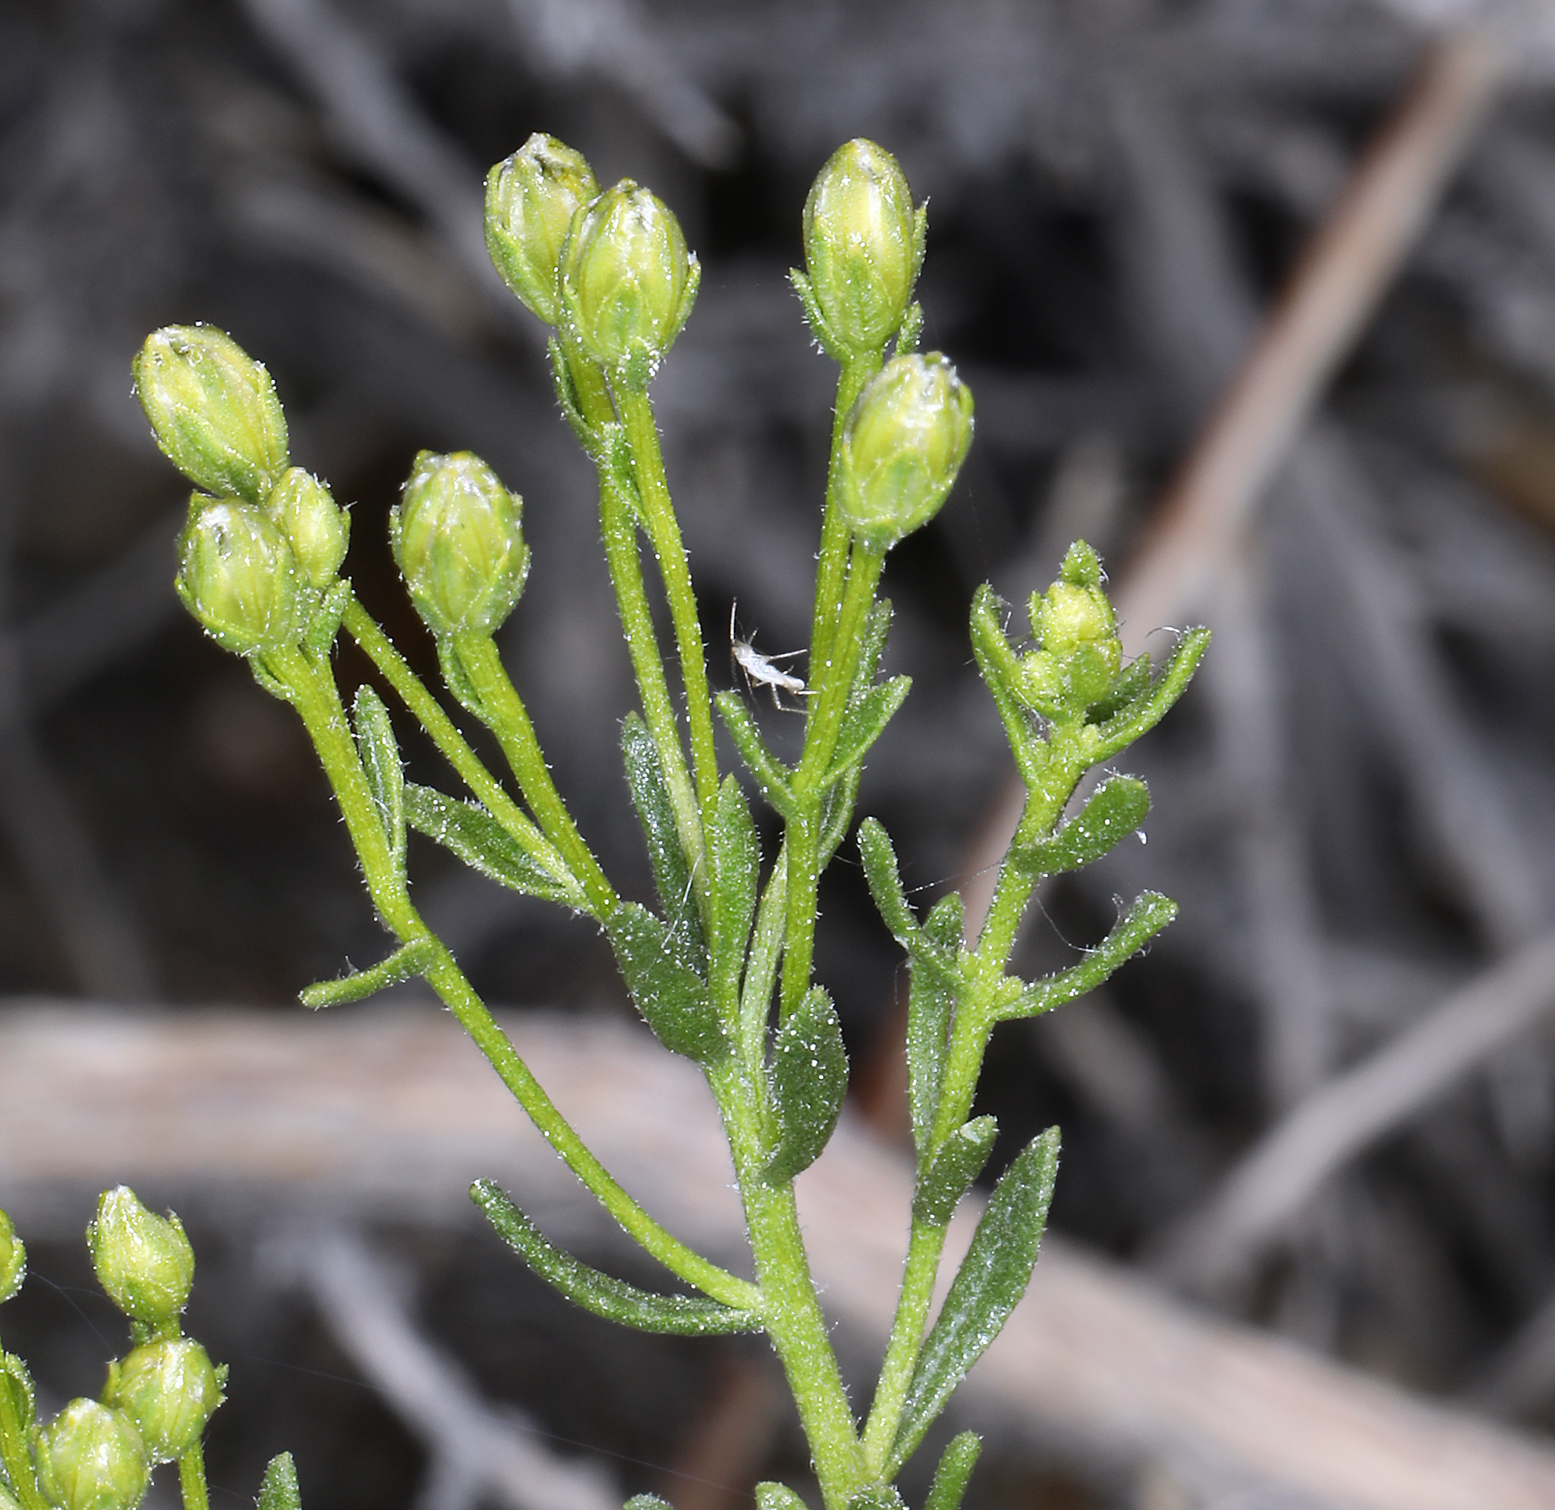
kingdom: Plantae
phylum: Tracheophyta
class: Magnoliopsida
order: Asterales
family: Asteraceae
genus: Ericameria
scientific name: Ericameria cooperi
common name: Cooper's goldenbush
